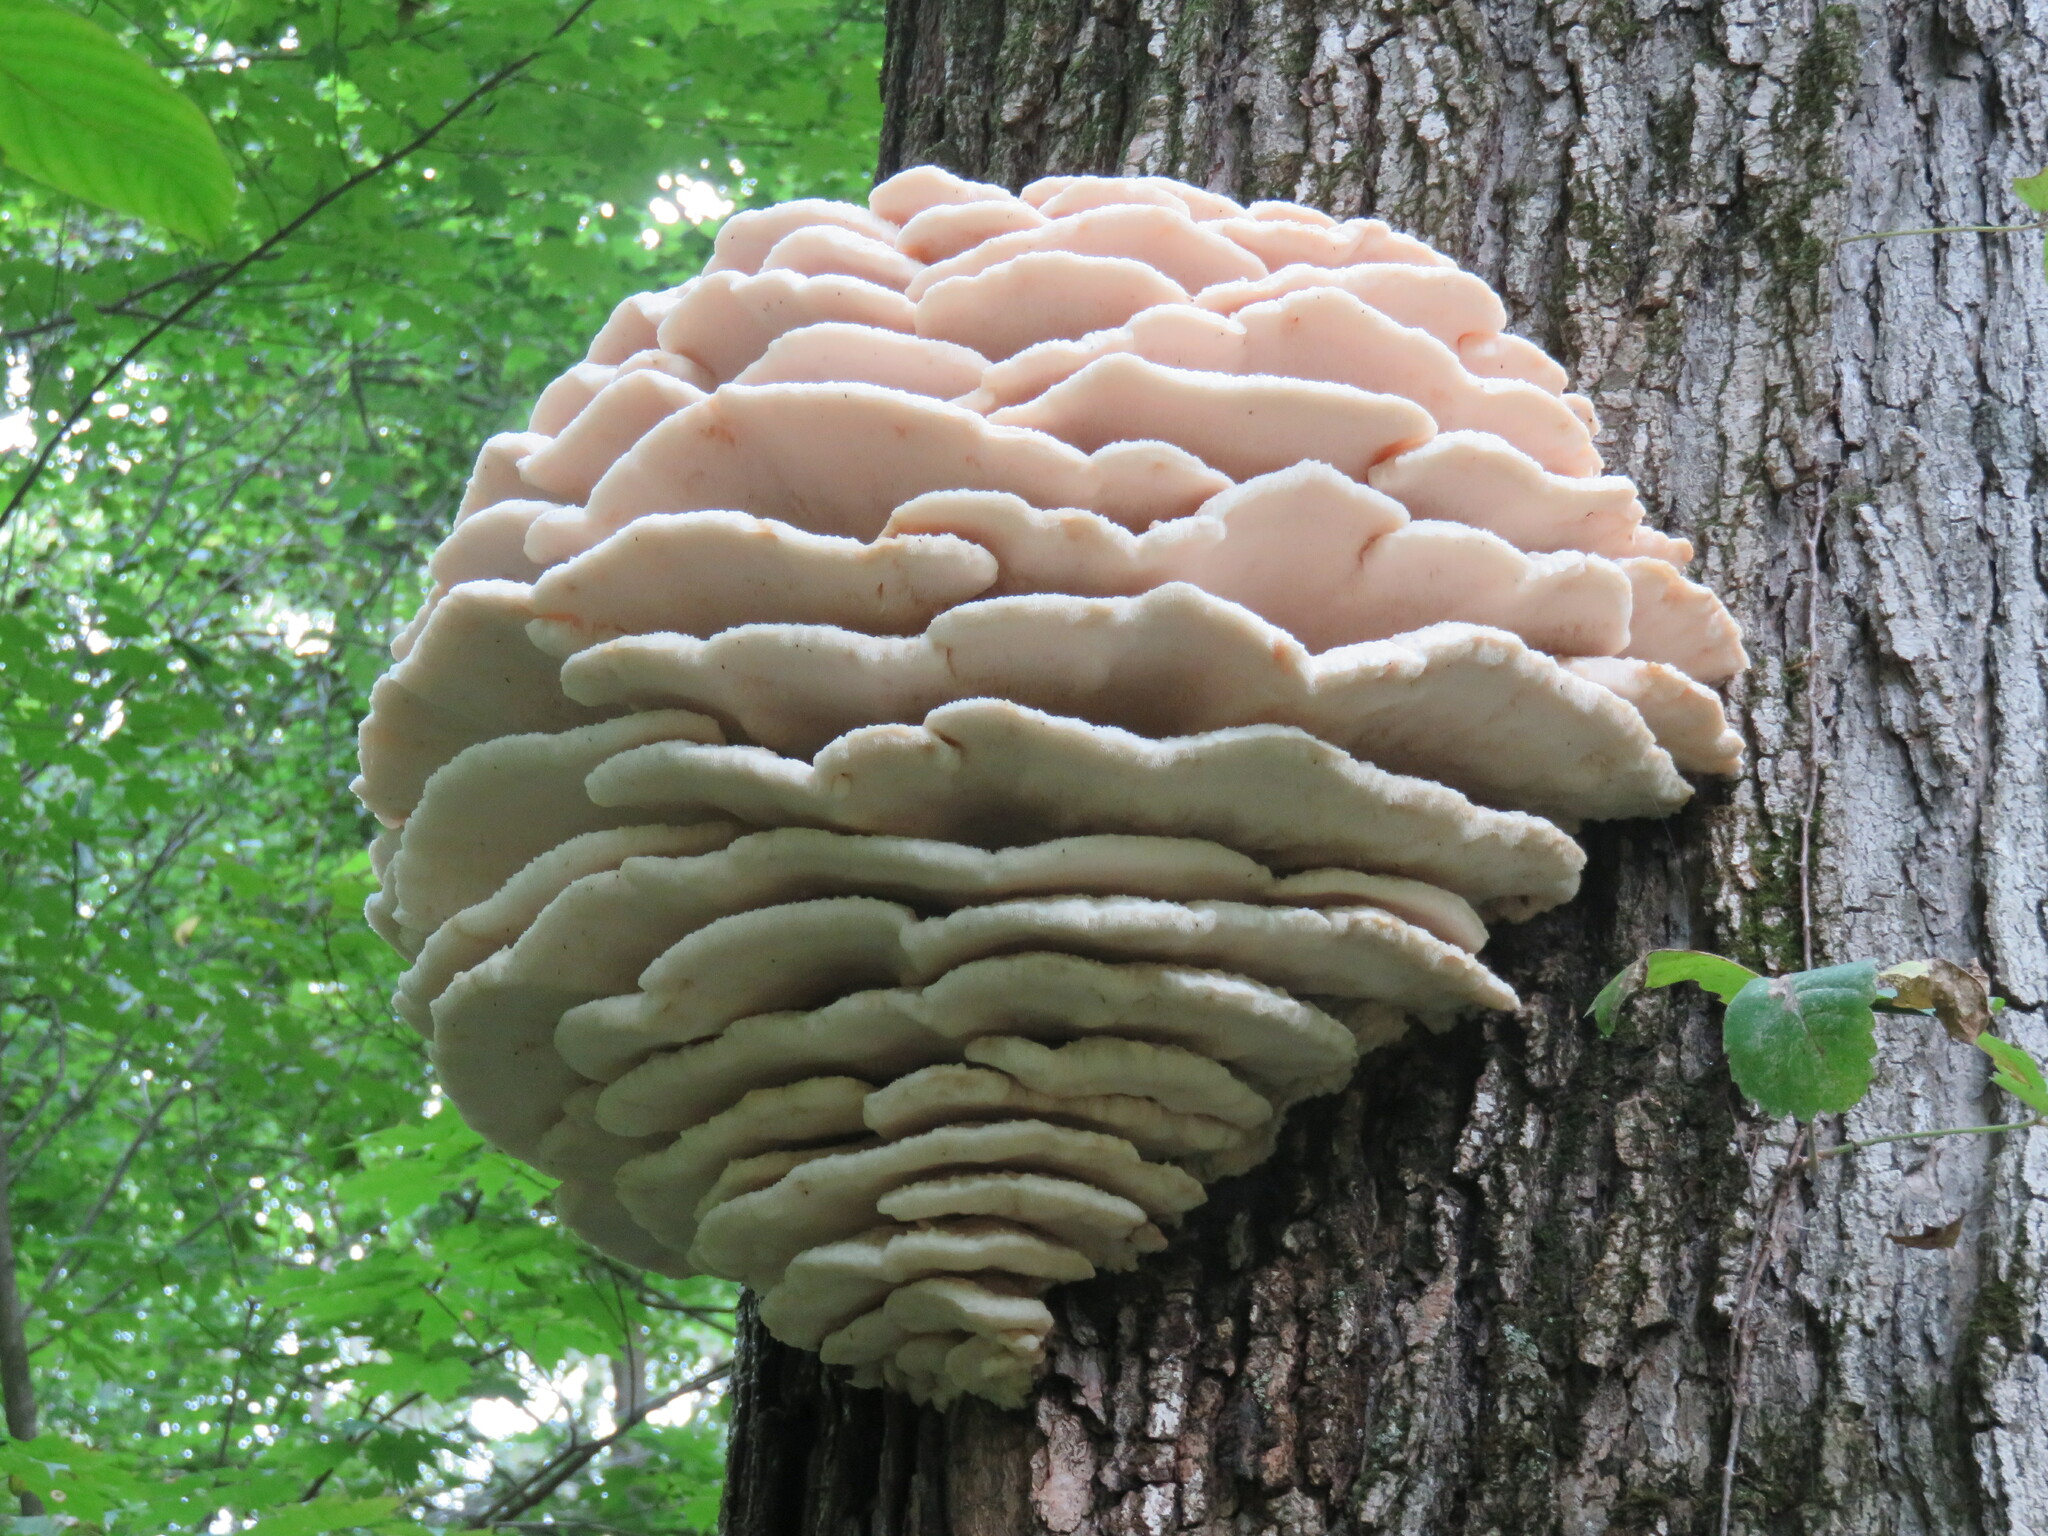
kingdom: Fungi
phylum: Basidiomycota
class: Agaricomycetes
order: Polyporales
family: Meruliaceae
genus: Climacodon
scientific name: Climacodon septentrionalis
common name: Northern tooth
